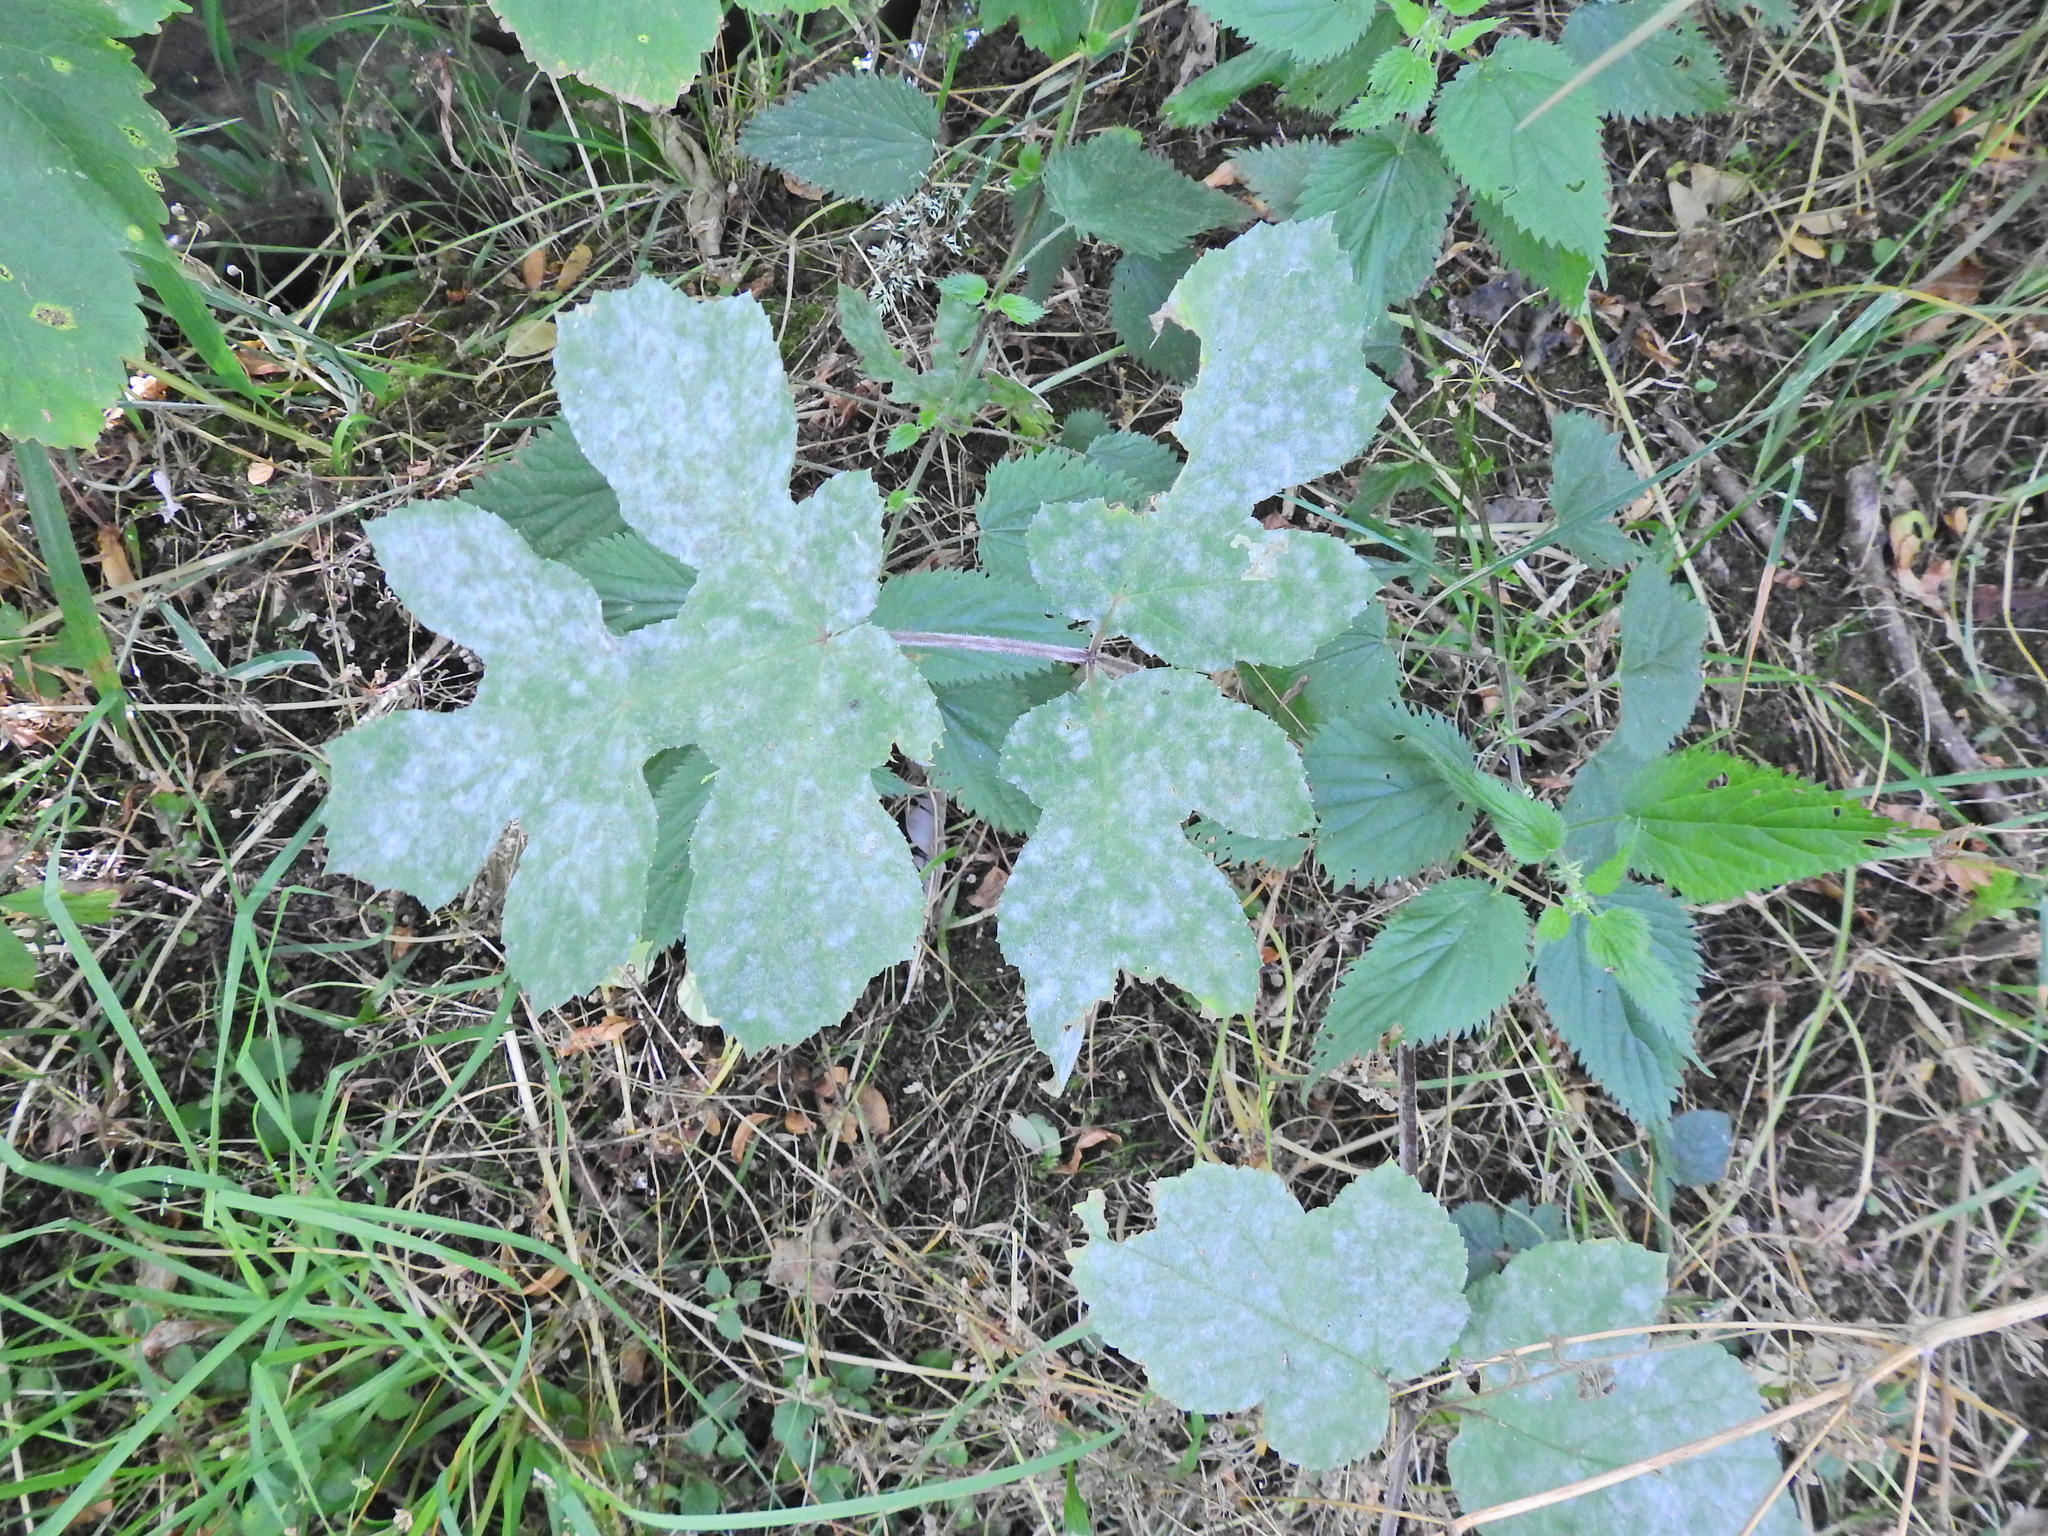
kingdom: Fungi
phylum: Ascomycota
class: Leotiomycetes
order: Helotiales
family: Erysiphaceae
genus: Erysiphe
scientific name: Erysiphe heraclei
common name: Umbellifer mildew
